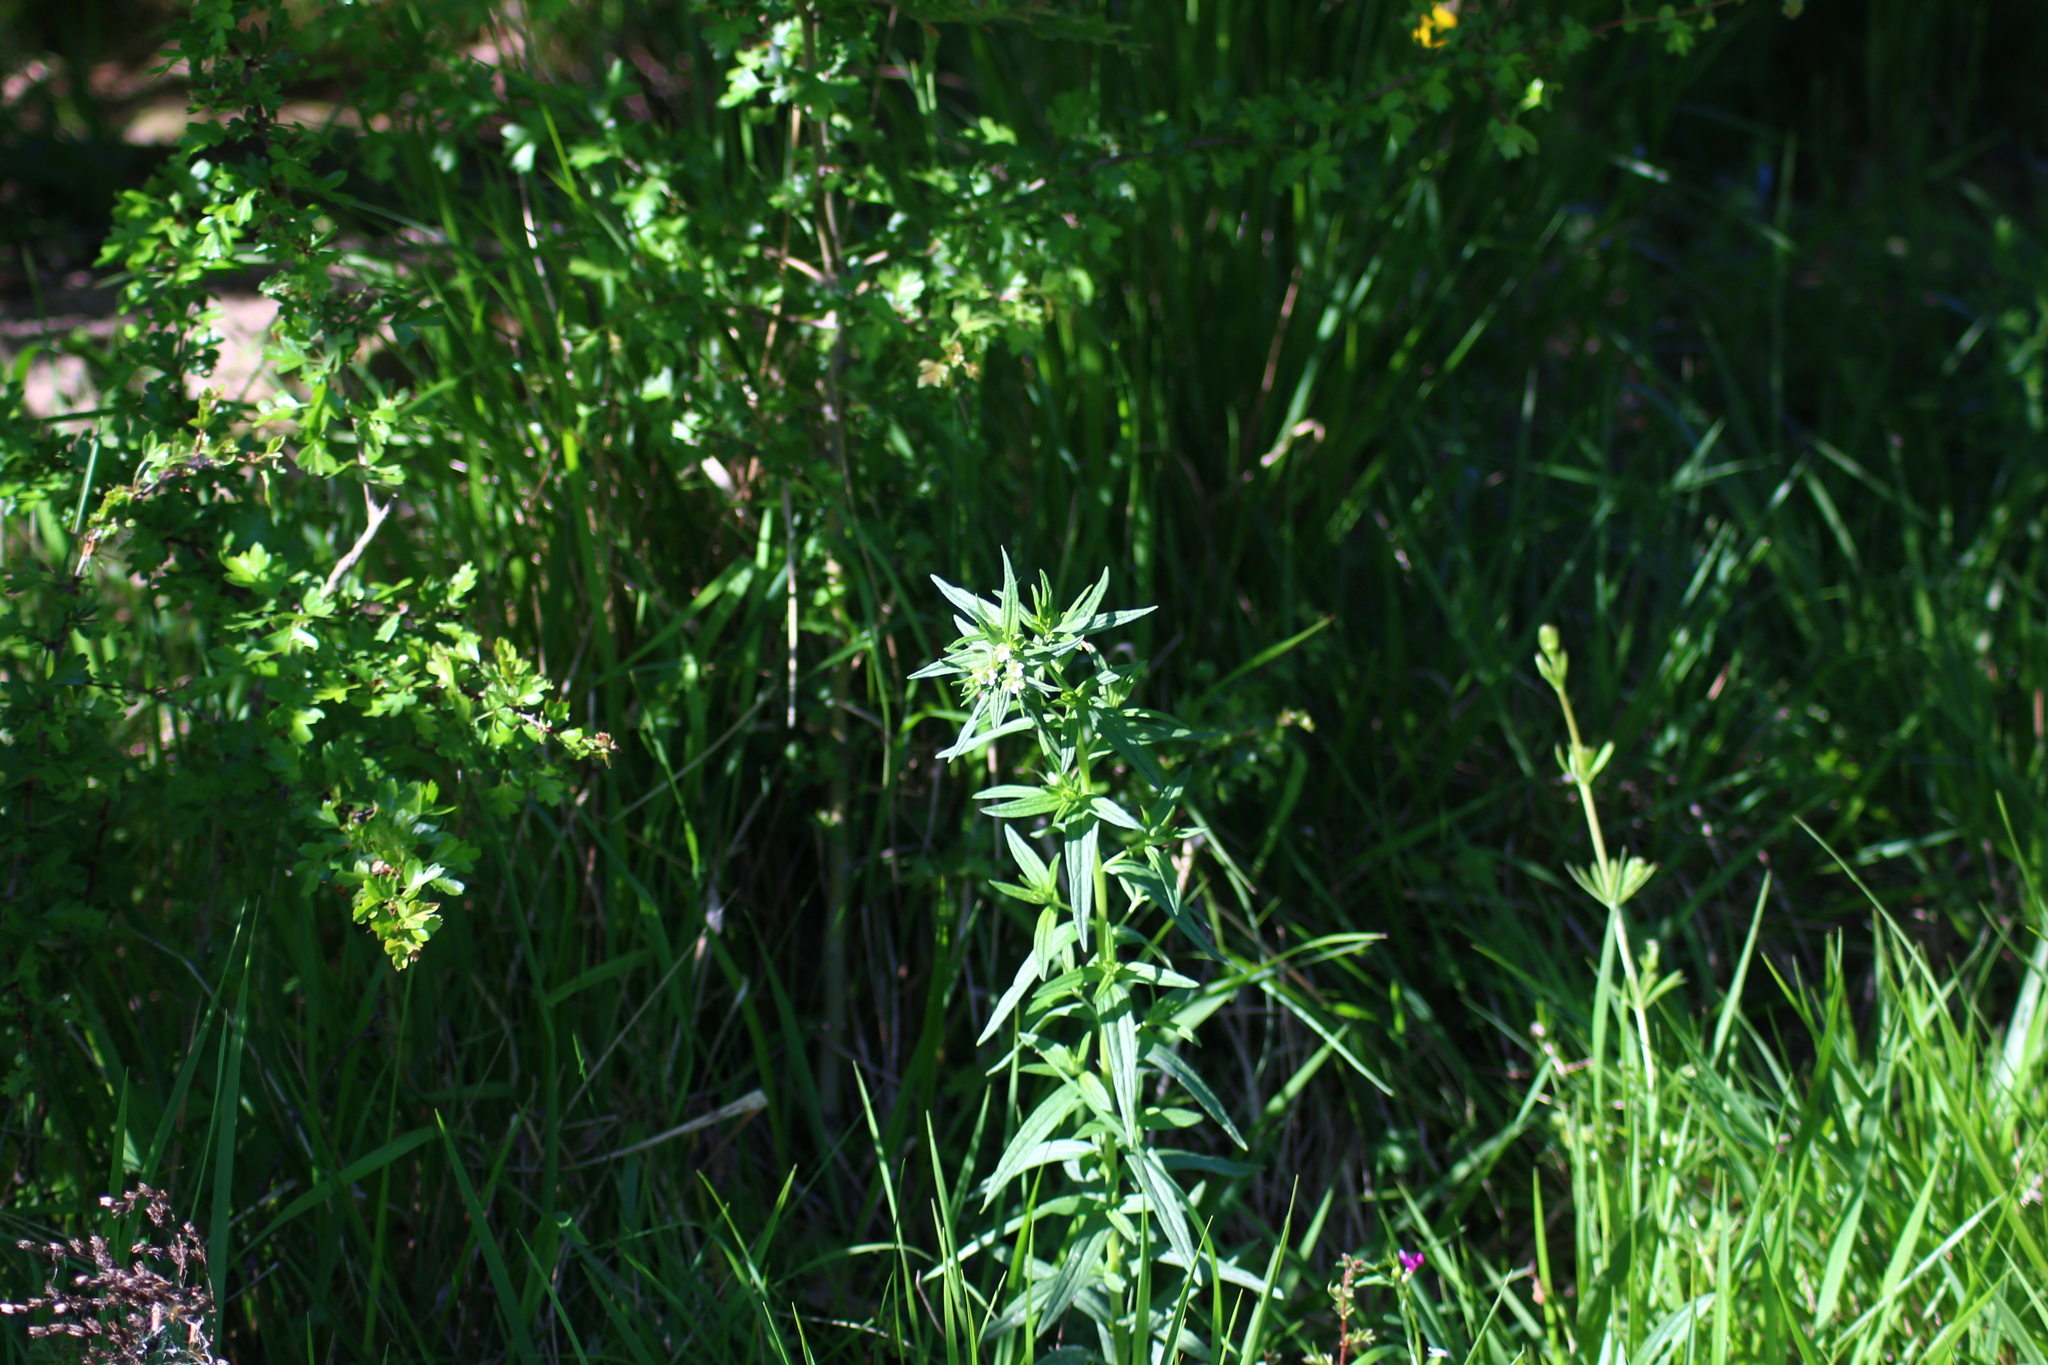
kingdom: Plantae
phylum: Tracheophyta
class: Magnoliopsida
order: Boraginales
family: Boraginaceae
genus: Lithospermum
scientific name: Lithospermum officinale
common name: Common gromwell
